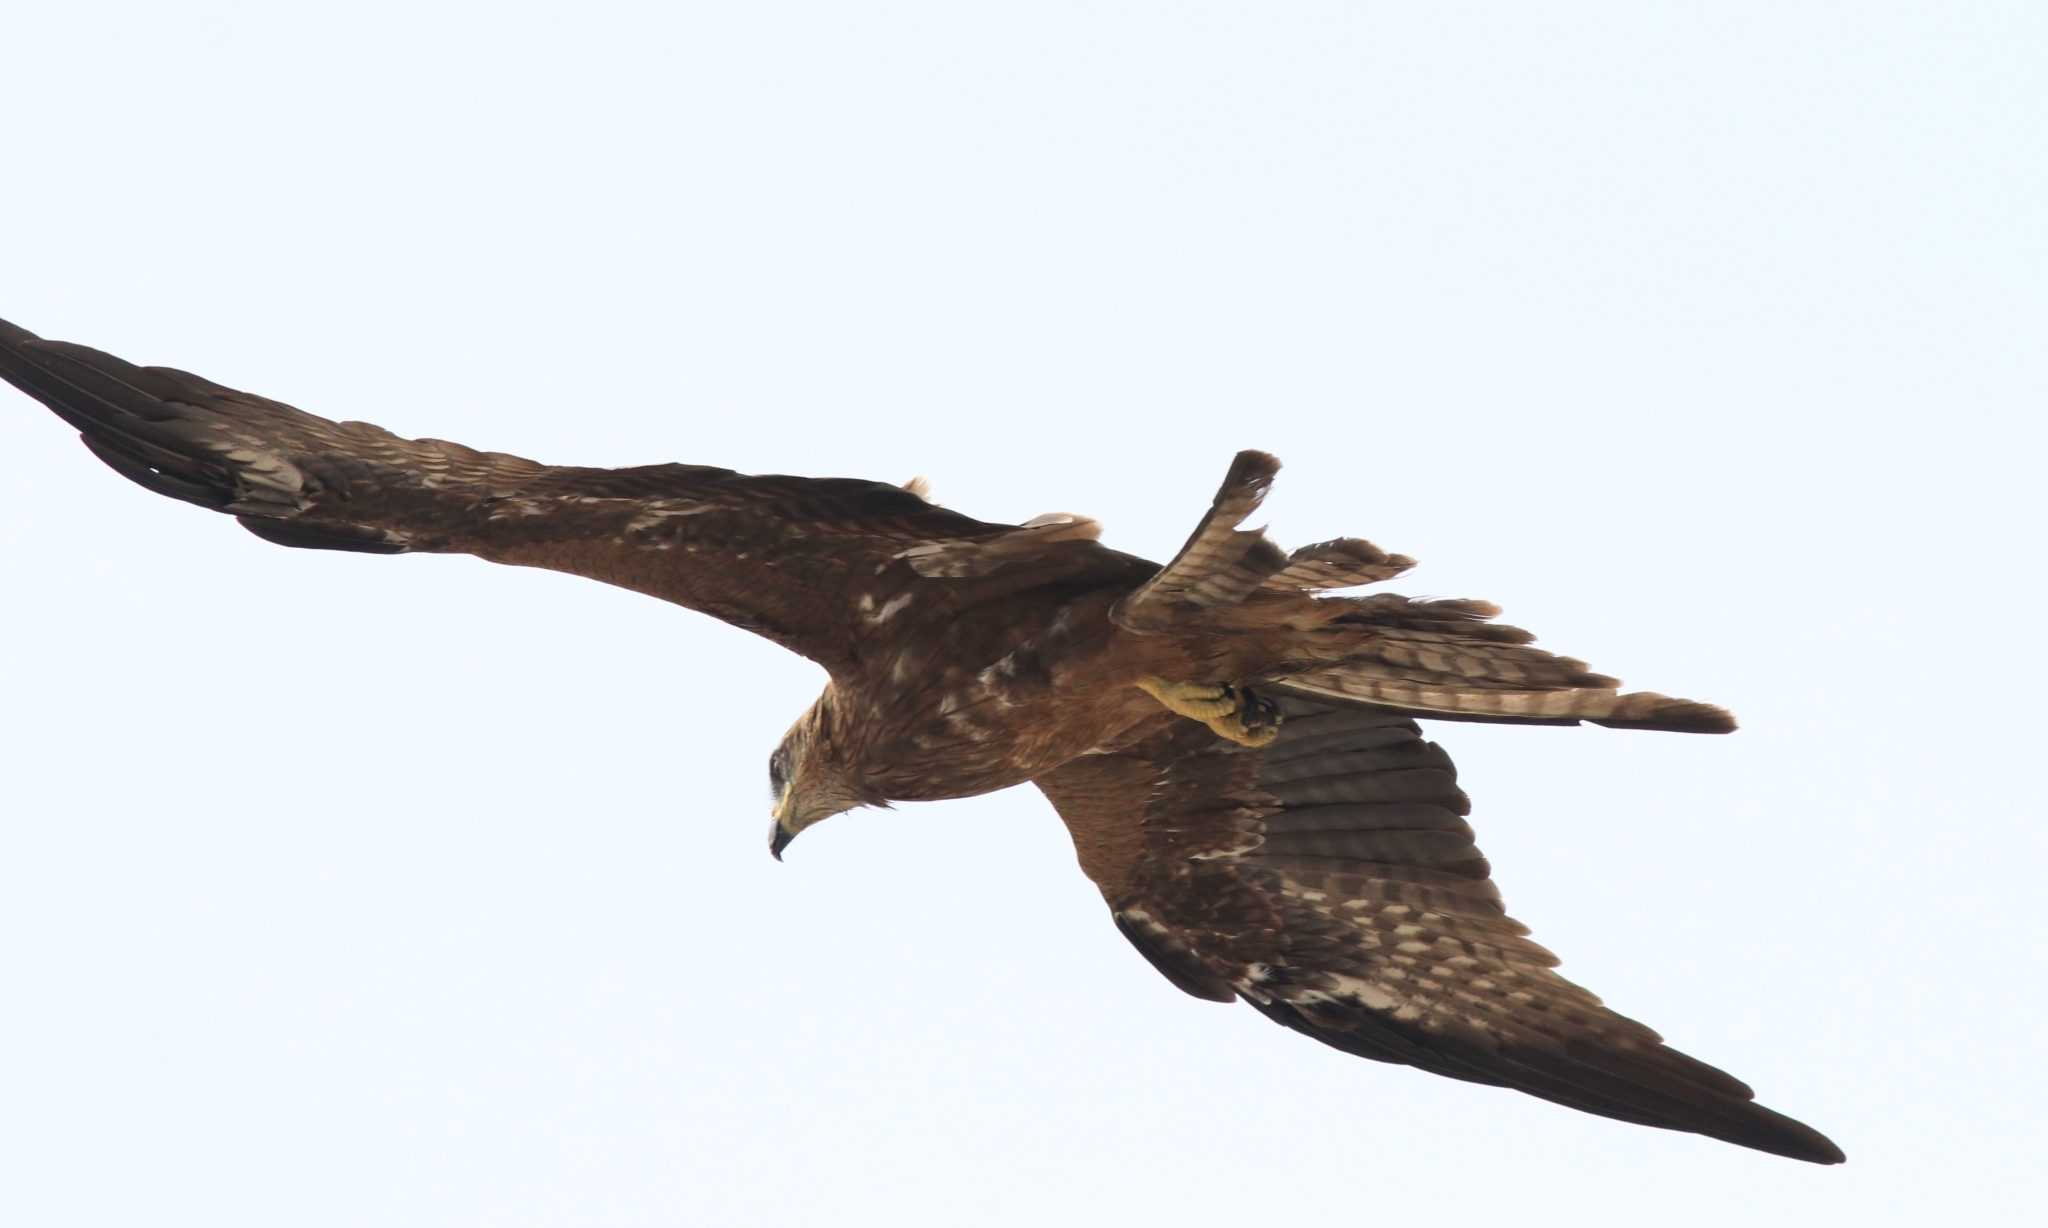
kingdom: Animalia
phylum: Chordata
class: Aves
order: Accipitriformes
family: Accipitridae
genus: Milvus
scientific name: Milvus migrans
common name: Black kite
